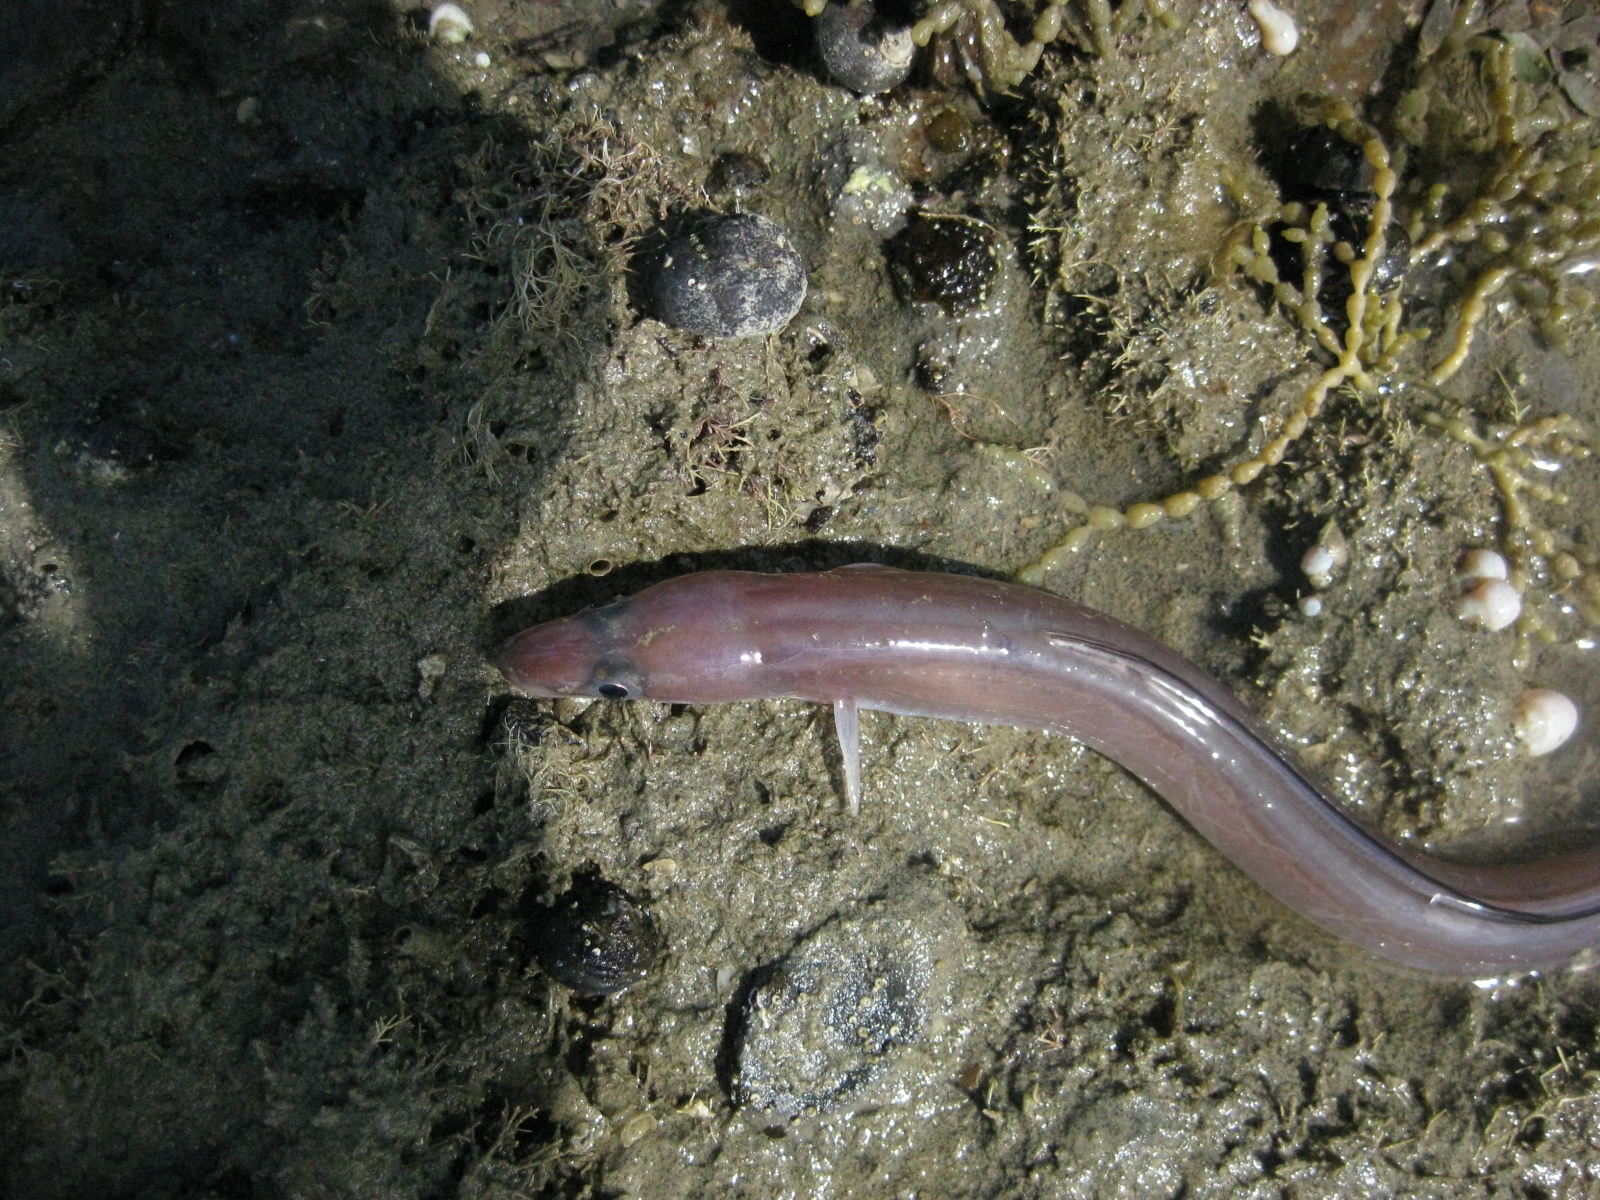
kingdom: Animalia
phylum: Chordata
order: Anguilliformes
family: Congridae
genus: Conger
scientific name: Conger monganius
